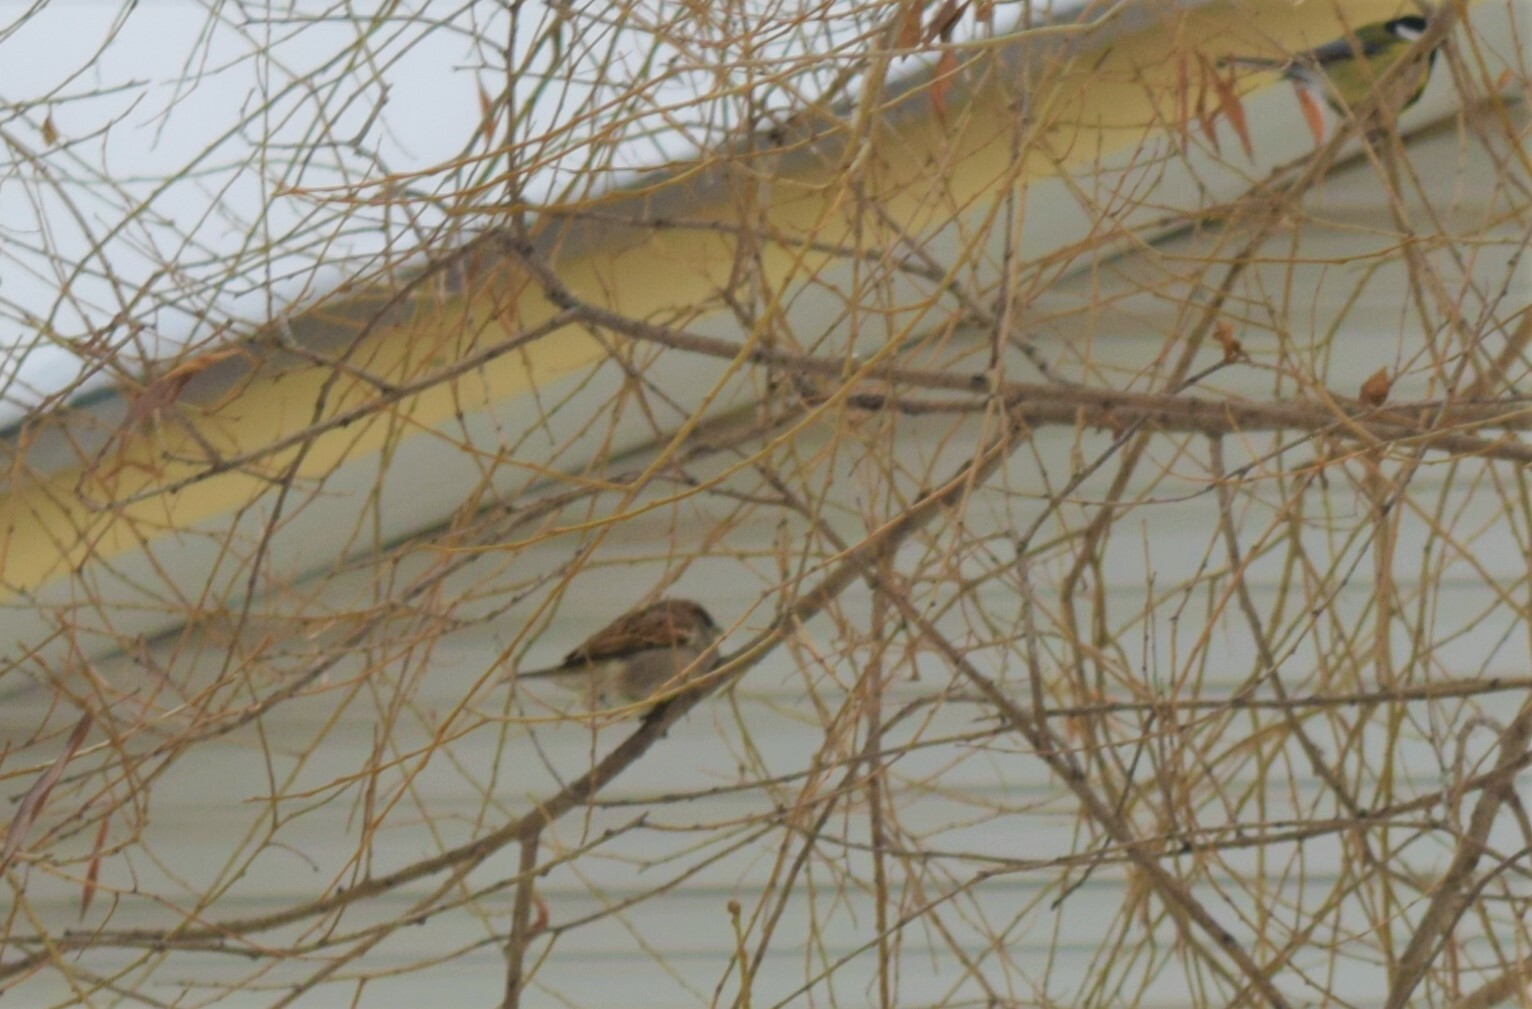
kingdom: Animalia
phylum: Chordata
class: Aves
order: Passeriformes
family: Passeridae
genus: Passer
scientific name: Passer domesticus
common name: House sparrow
